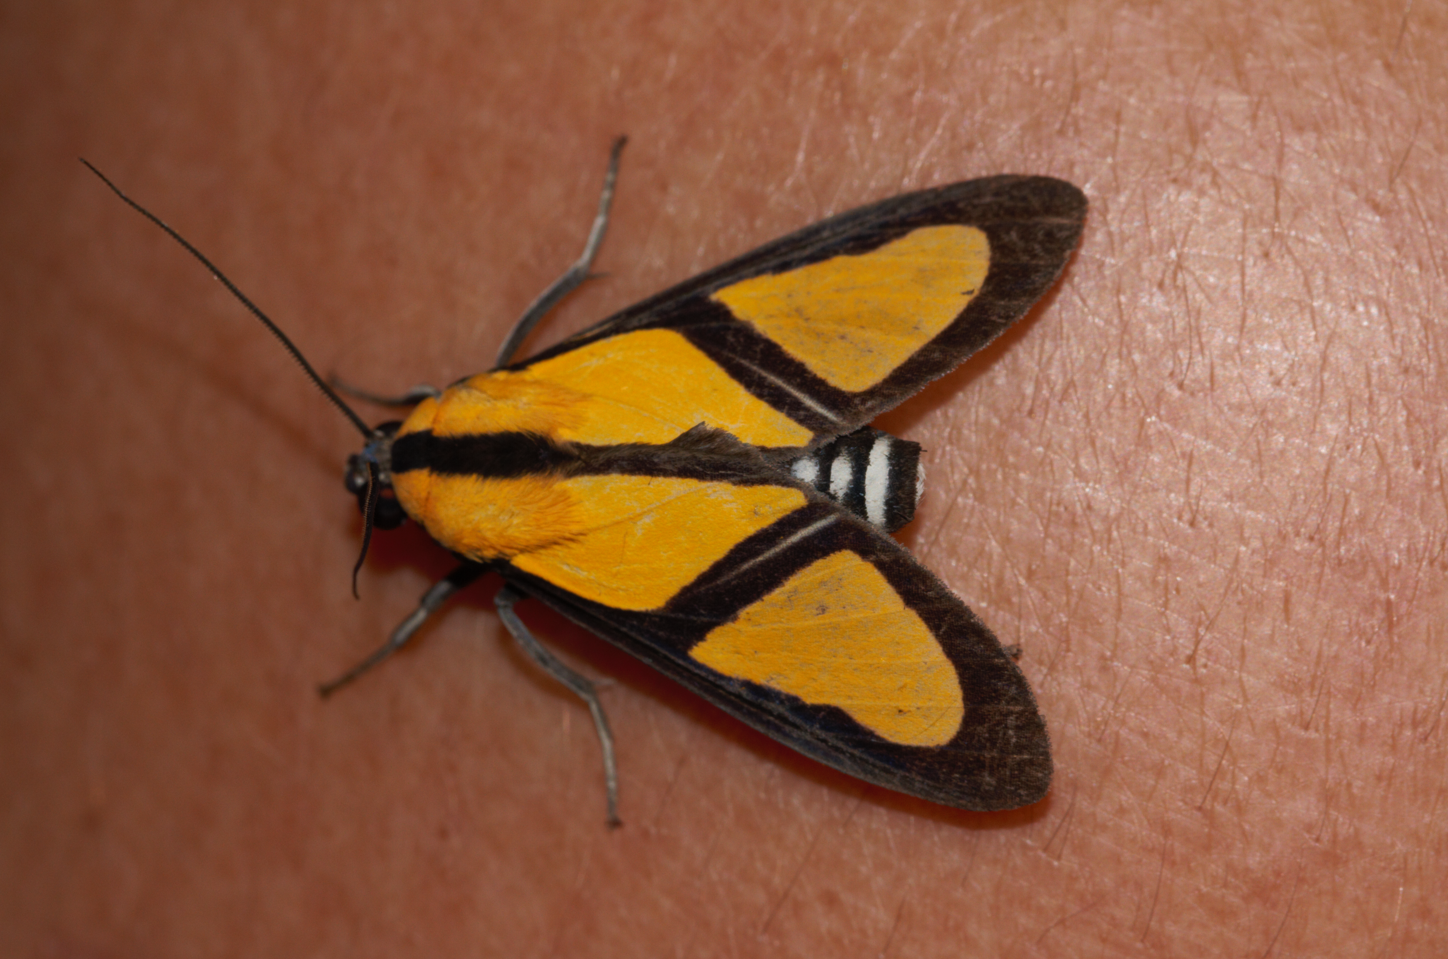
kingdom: Animalia
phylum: Arthropoda
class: Insecta
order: Lepidoptera
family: Erebidae
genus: Xanthoarctia
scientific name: Xanthoarctia pseudameoides
